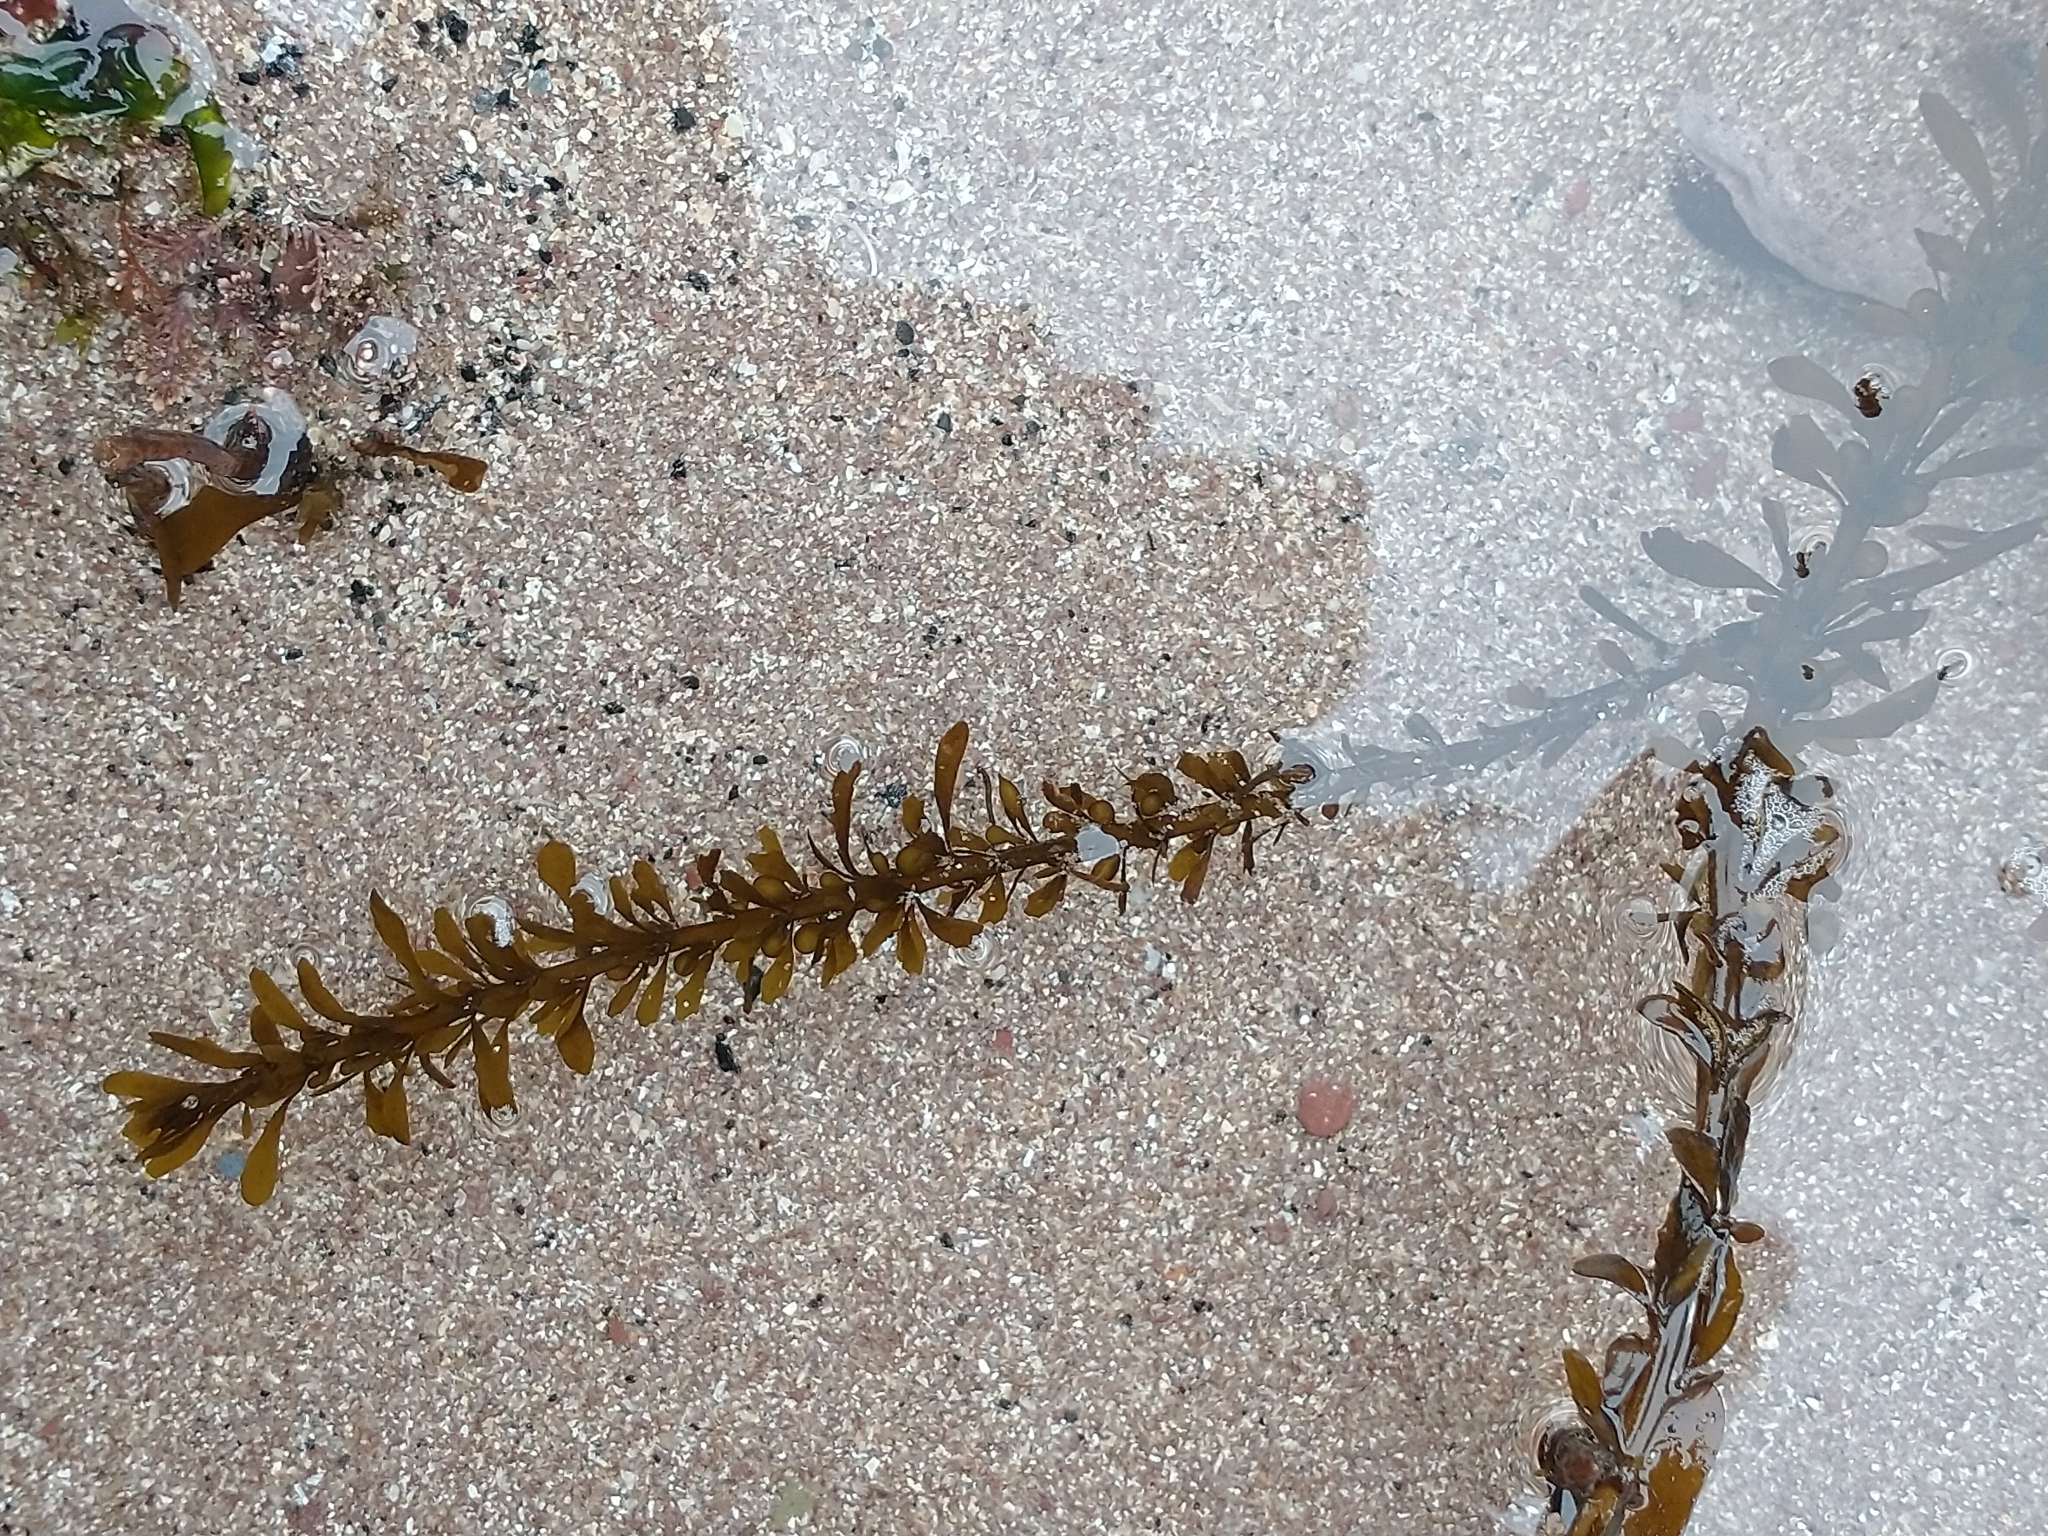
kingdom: Chromista
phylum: Ochrophyta
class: Phaeophyceae
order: Fucales
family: Sargassaceae
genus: Sargassum
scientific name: Sargassum muticum
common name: Japweed
